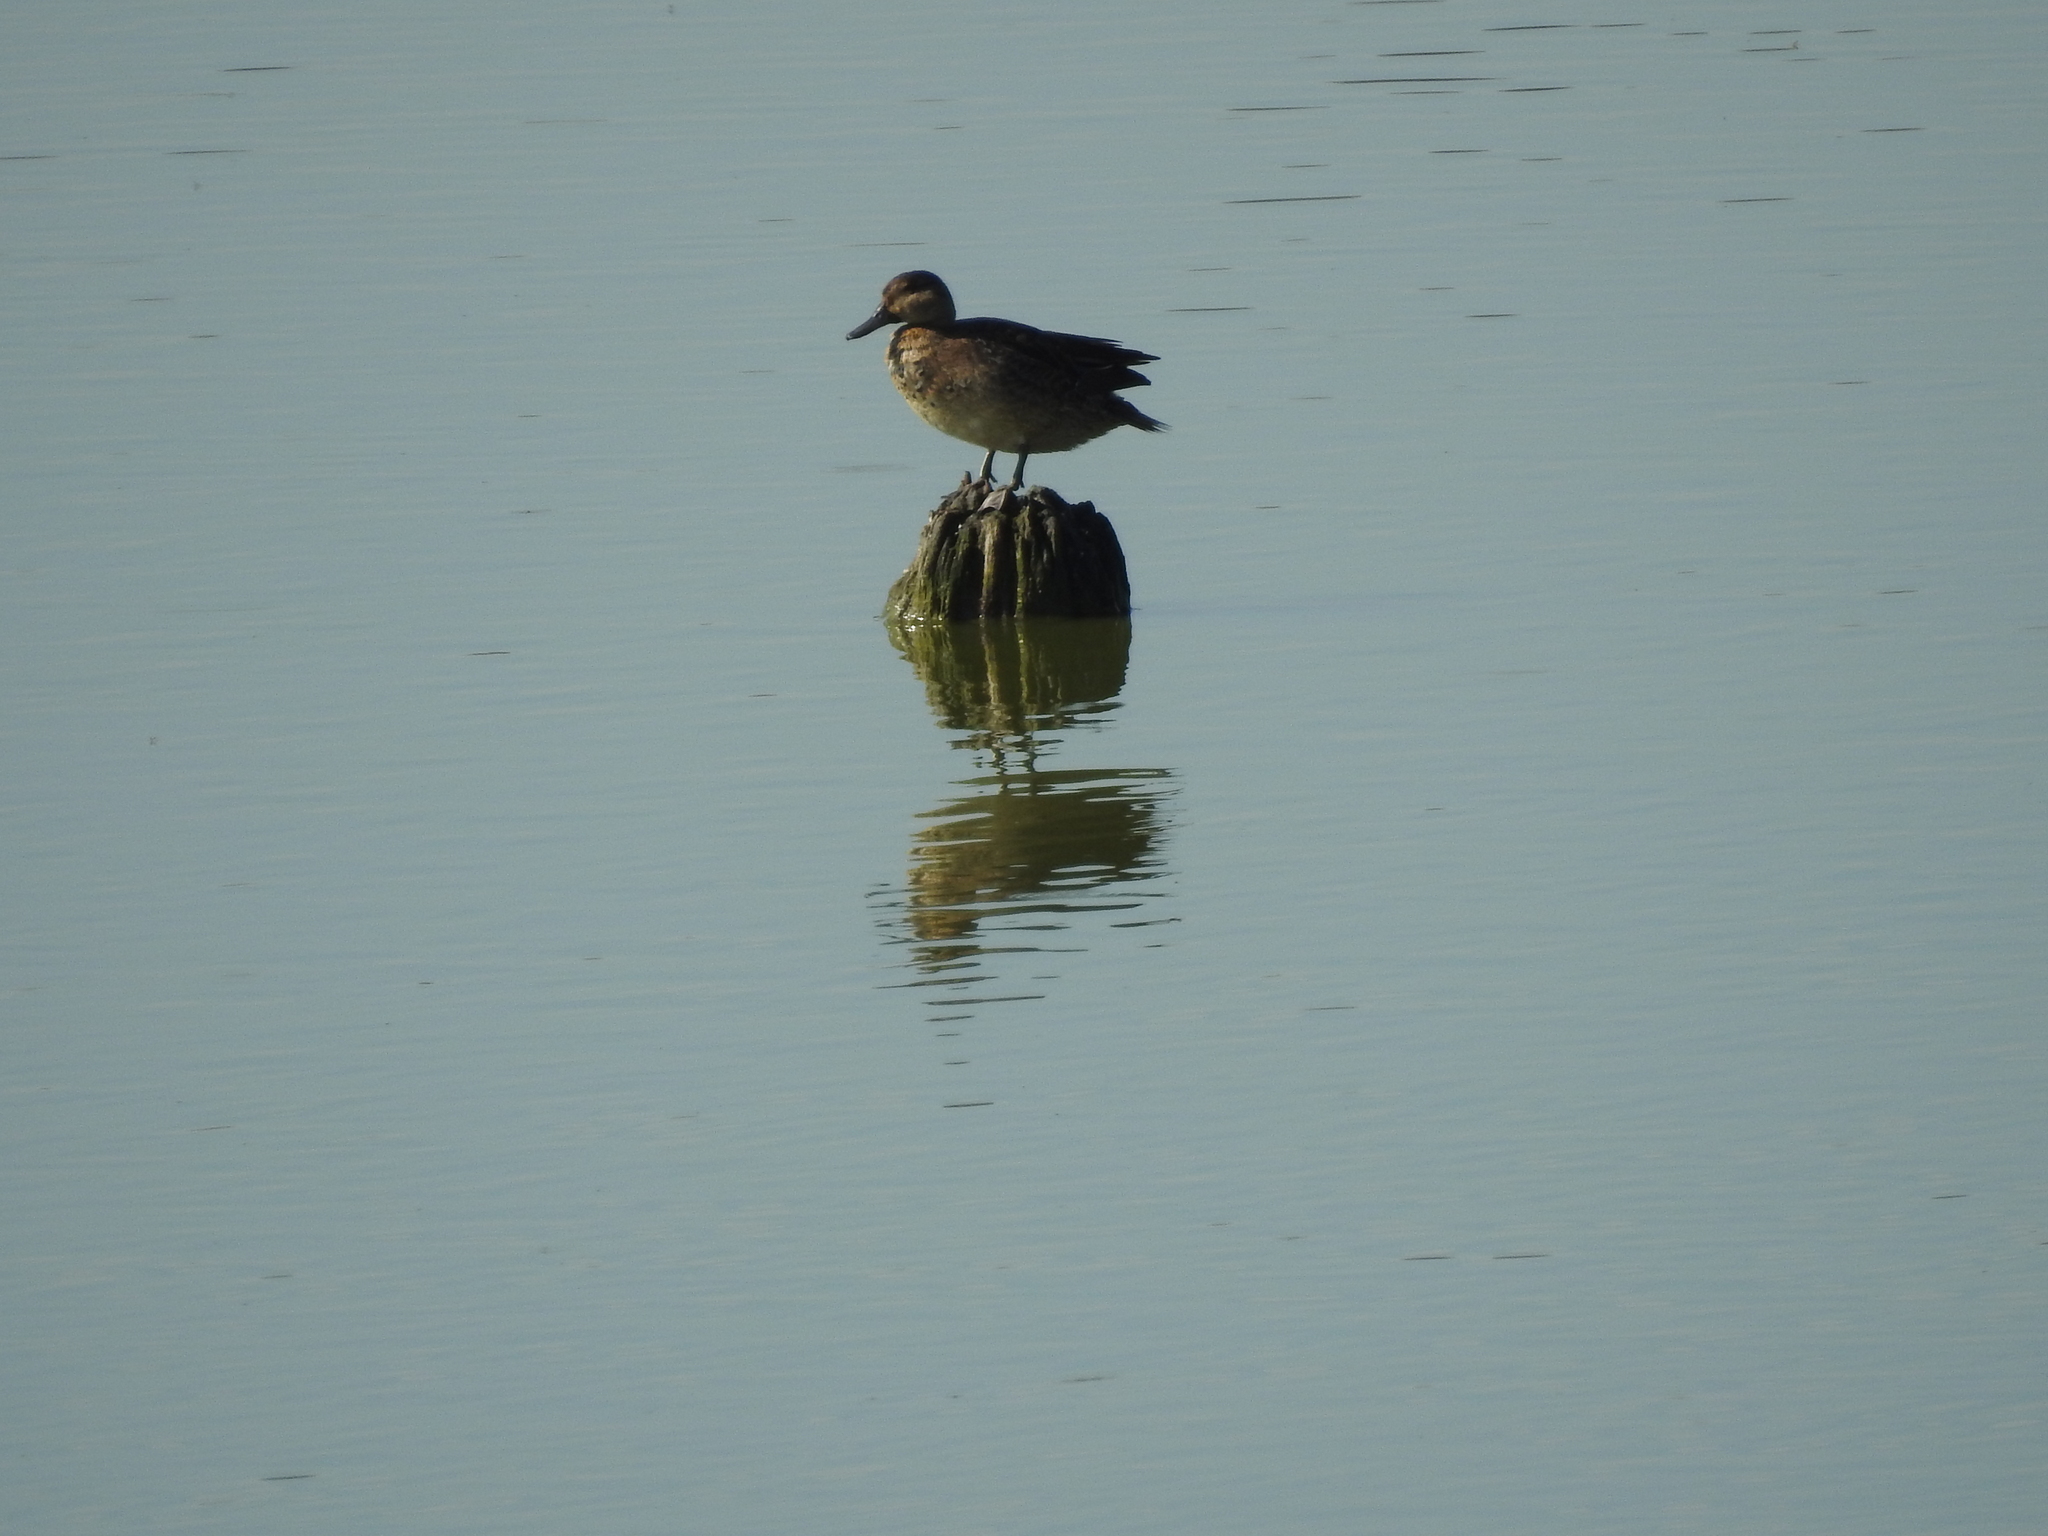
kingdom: Animalia
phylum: Chordata
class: Aves
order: Anseriformes
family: Anatidae
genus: Anas
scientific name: Anas crecca
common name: Eurasian teal
